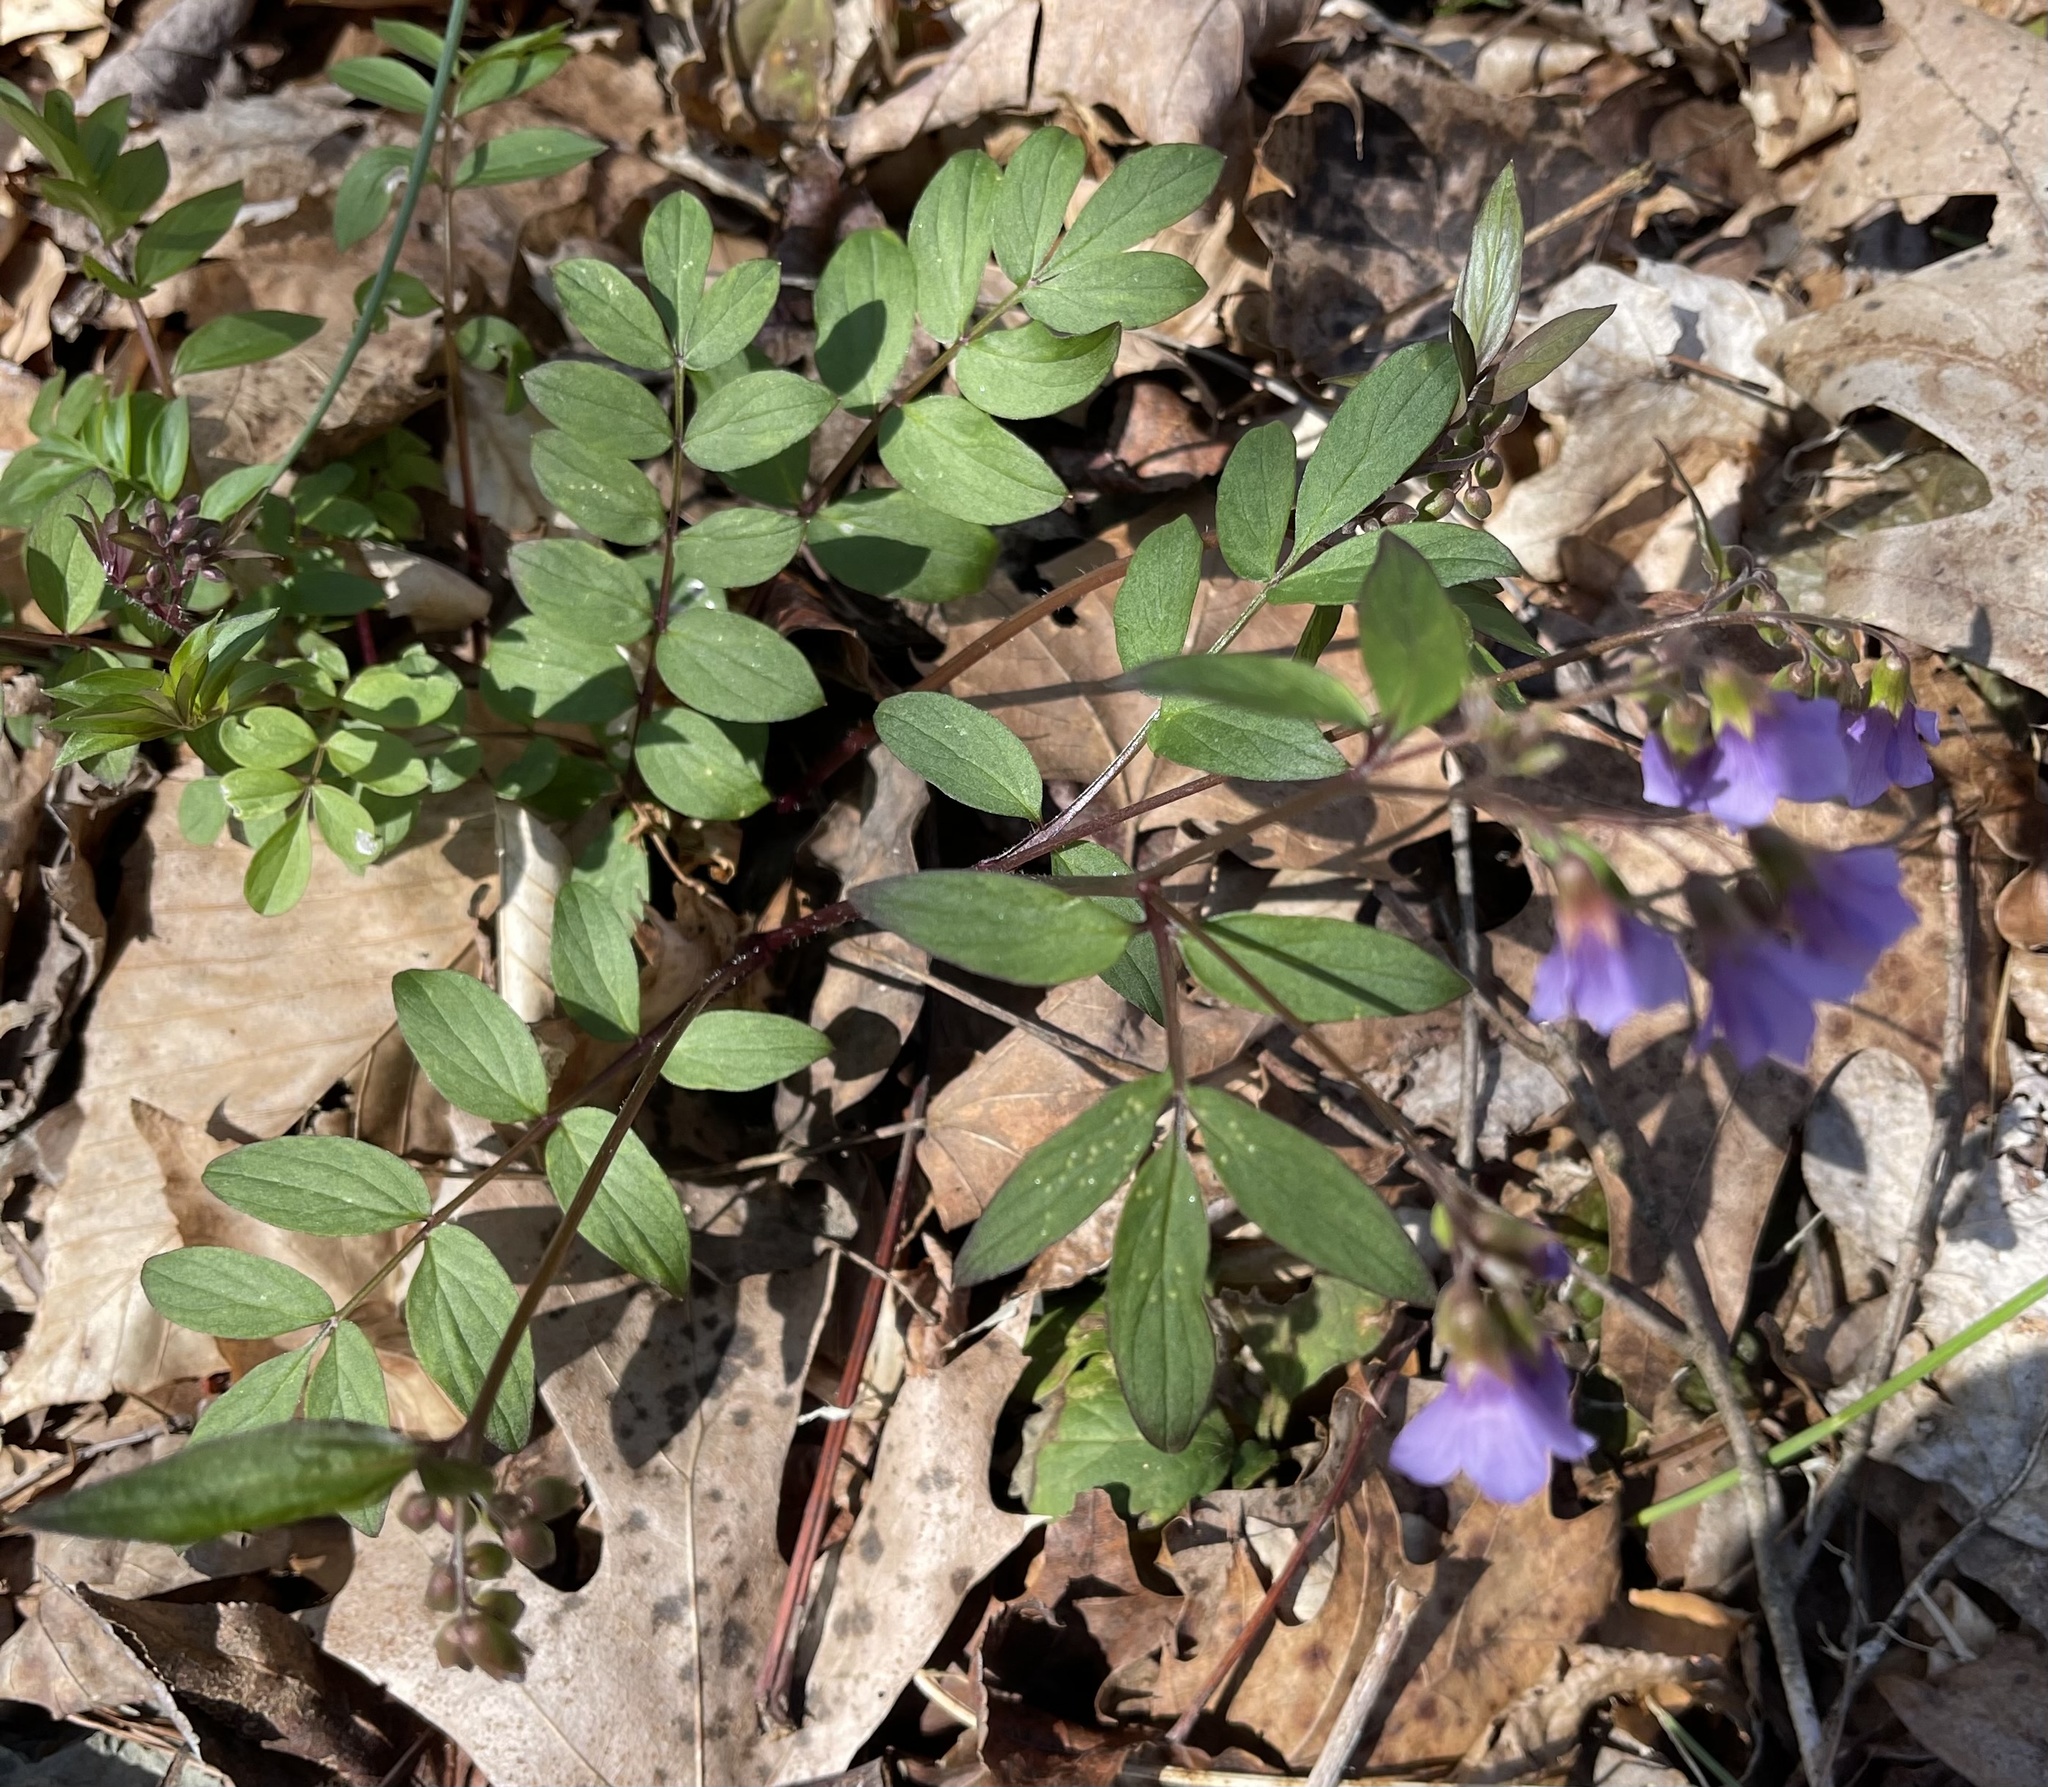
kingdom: Plantae
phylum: Tracheophyta
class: Magnoliopsida
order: Ericales
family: Polemoniaceae
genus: Polemonium
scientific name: Polemonium reptans
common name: Creeping jacob's-ladder
